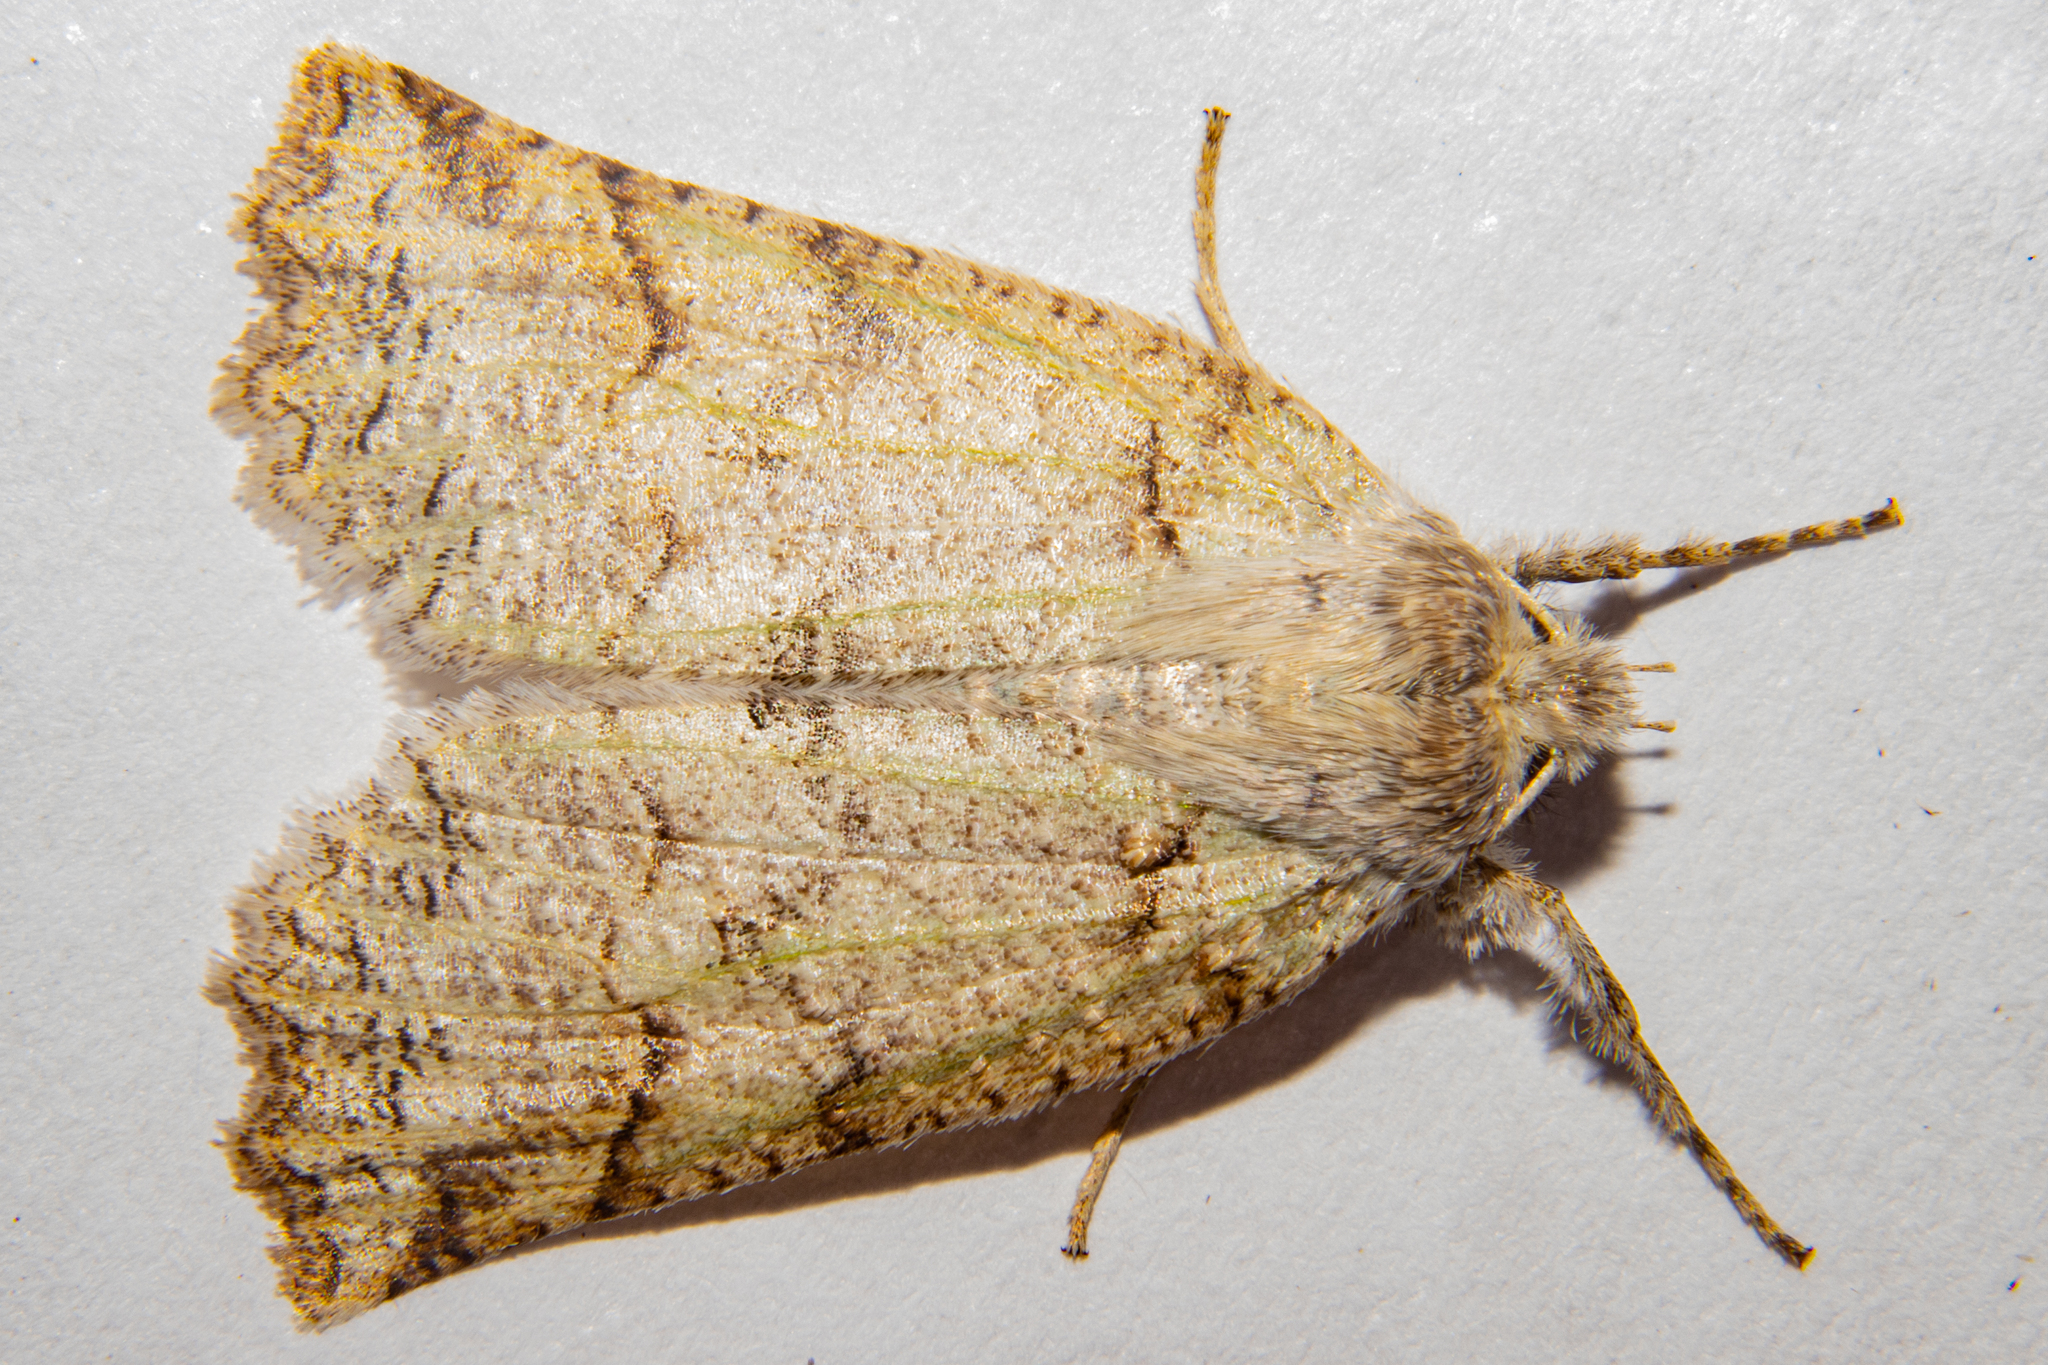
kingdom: Animalia
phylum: Arthropoda
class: Insecta
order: Lepidoptera
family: Geometridae
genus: Declana
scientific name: Declana floccosa
